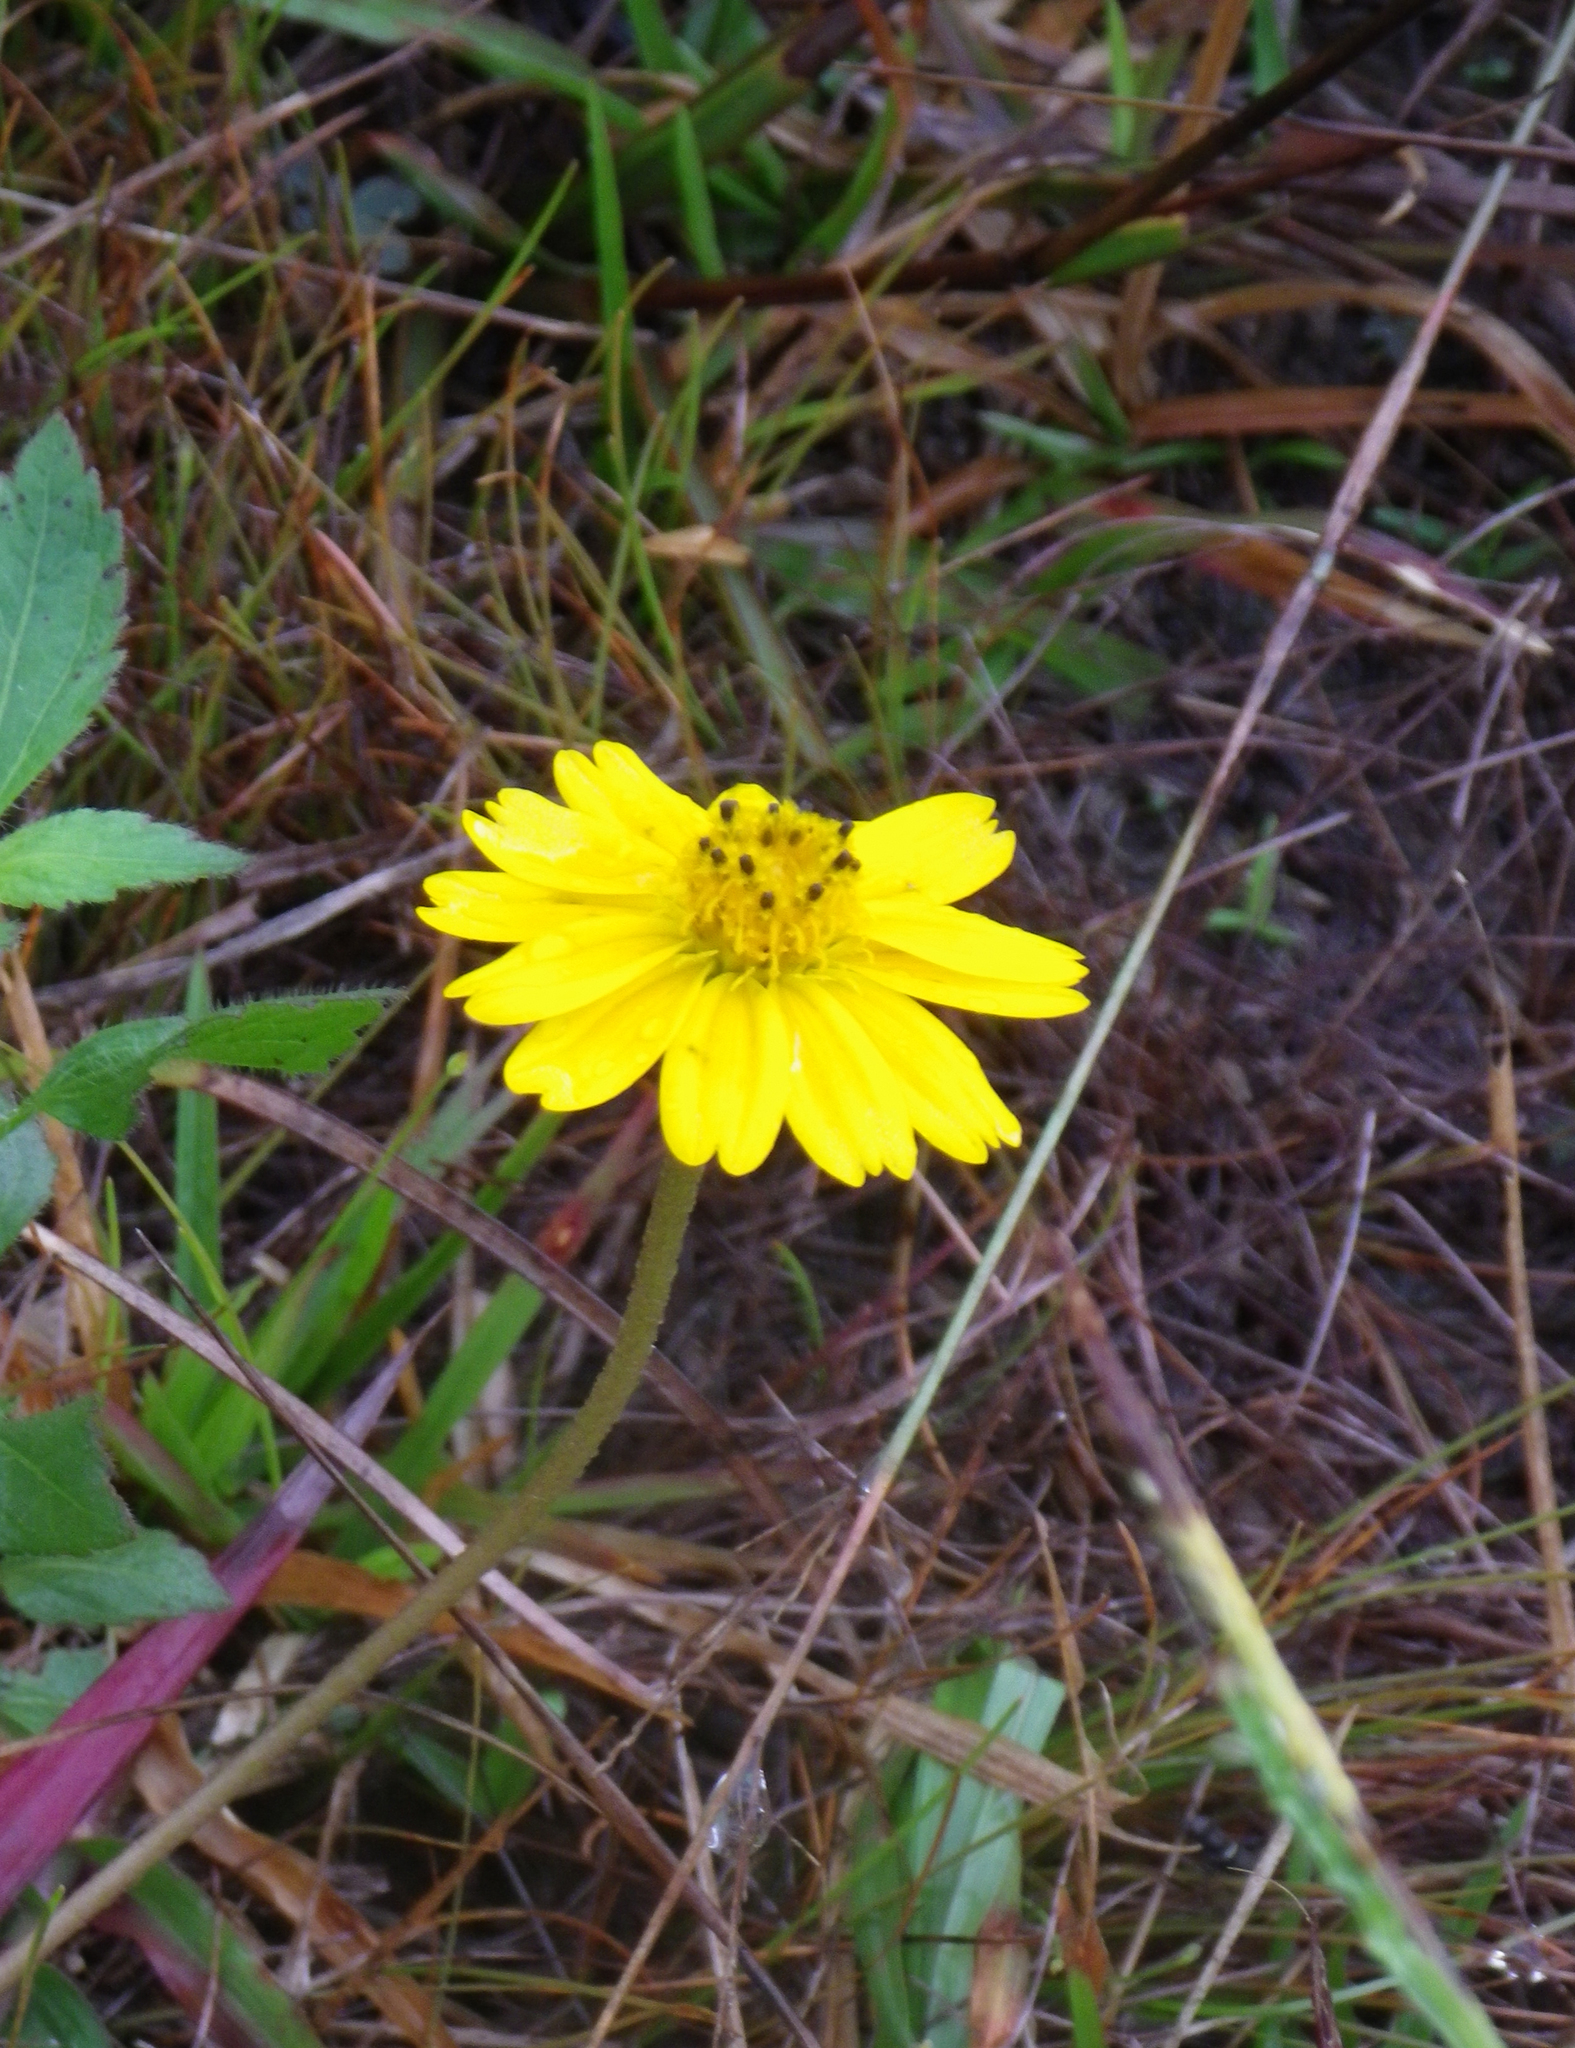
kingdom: Plantae
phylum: Tracheophyta
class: Magnoliopsida
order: Asterales
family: Asteraceae
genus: Sphagneticola
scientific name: Sphagneticola trilobata
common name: Bay biscayne creeping-oxeye
